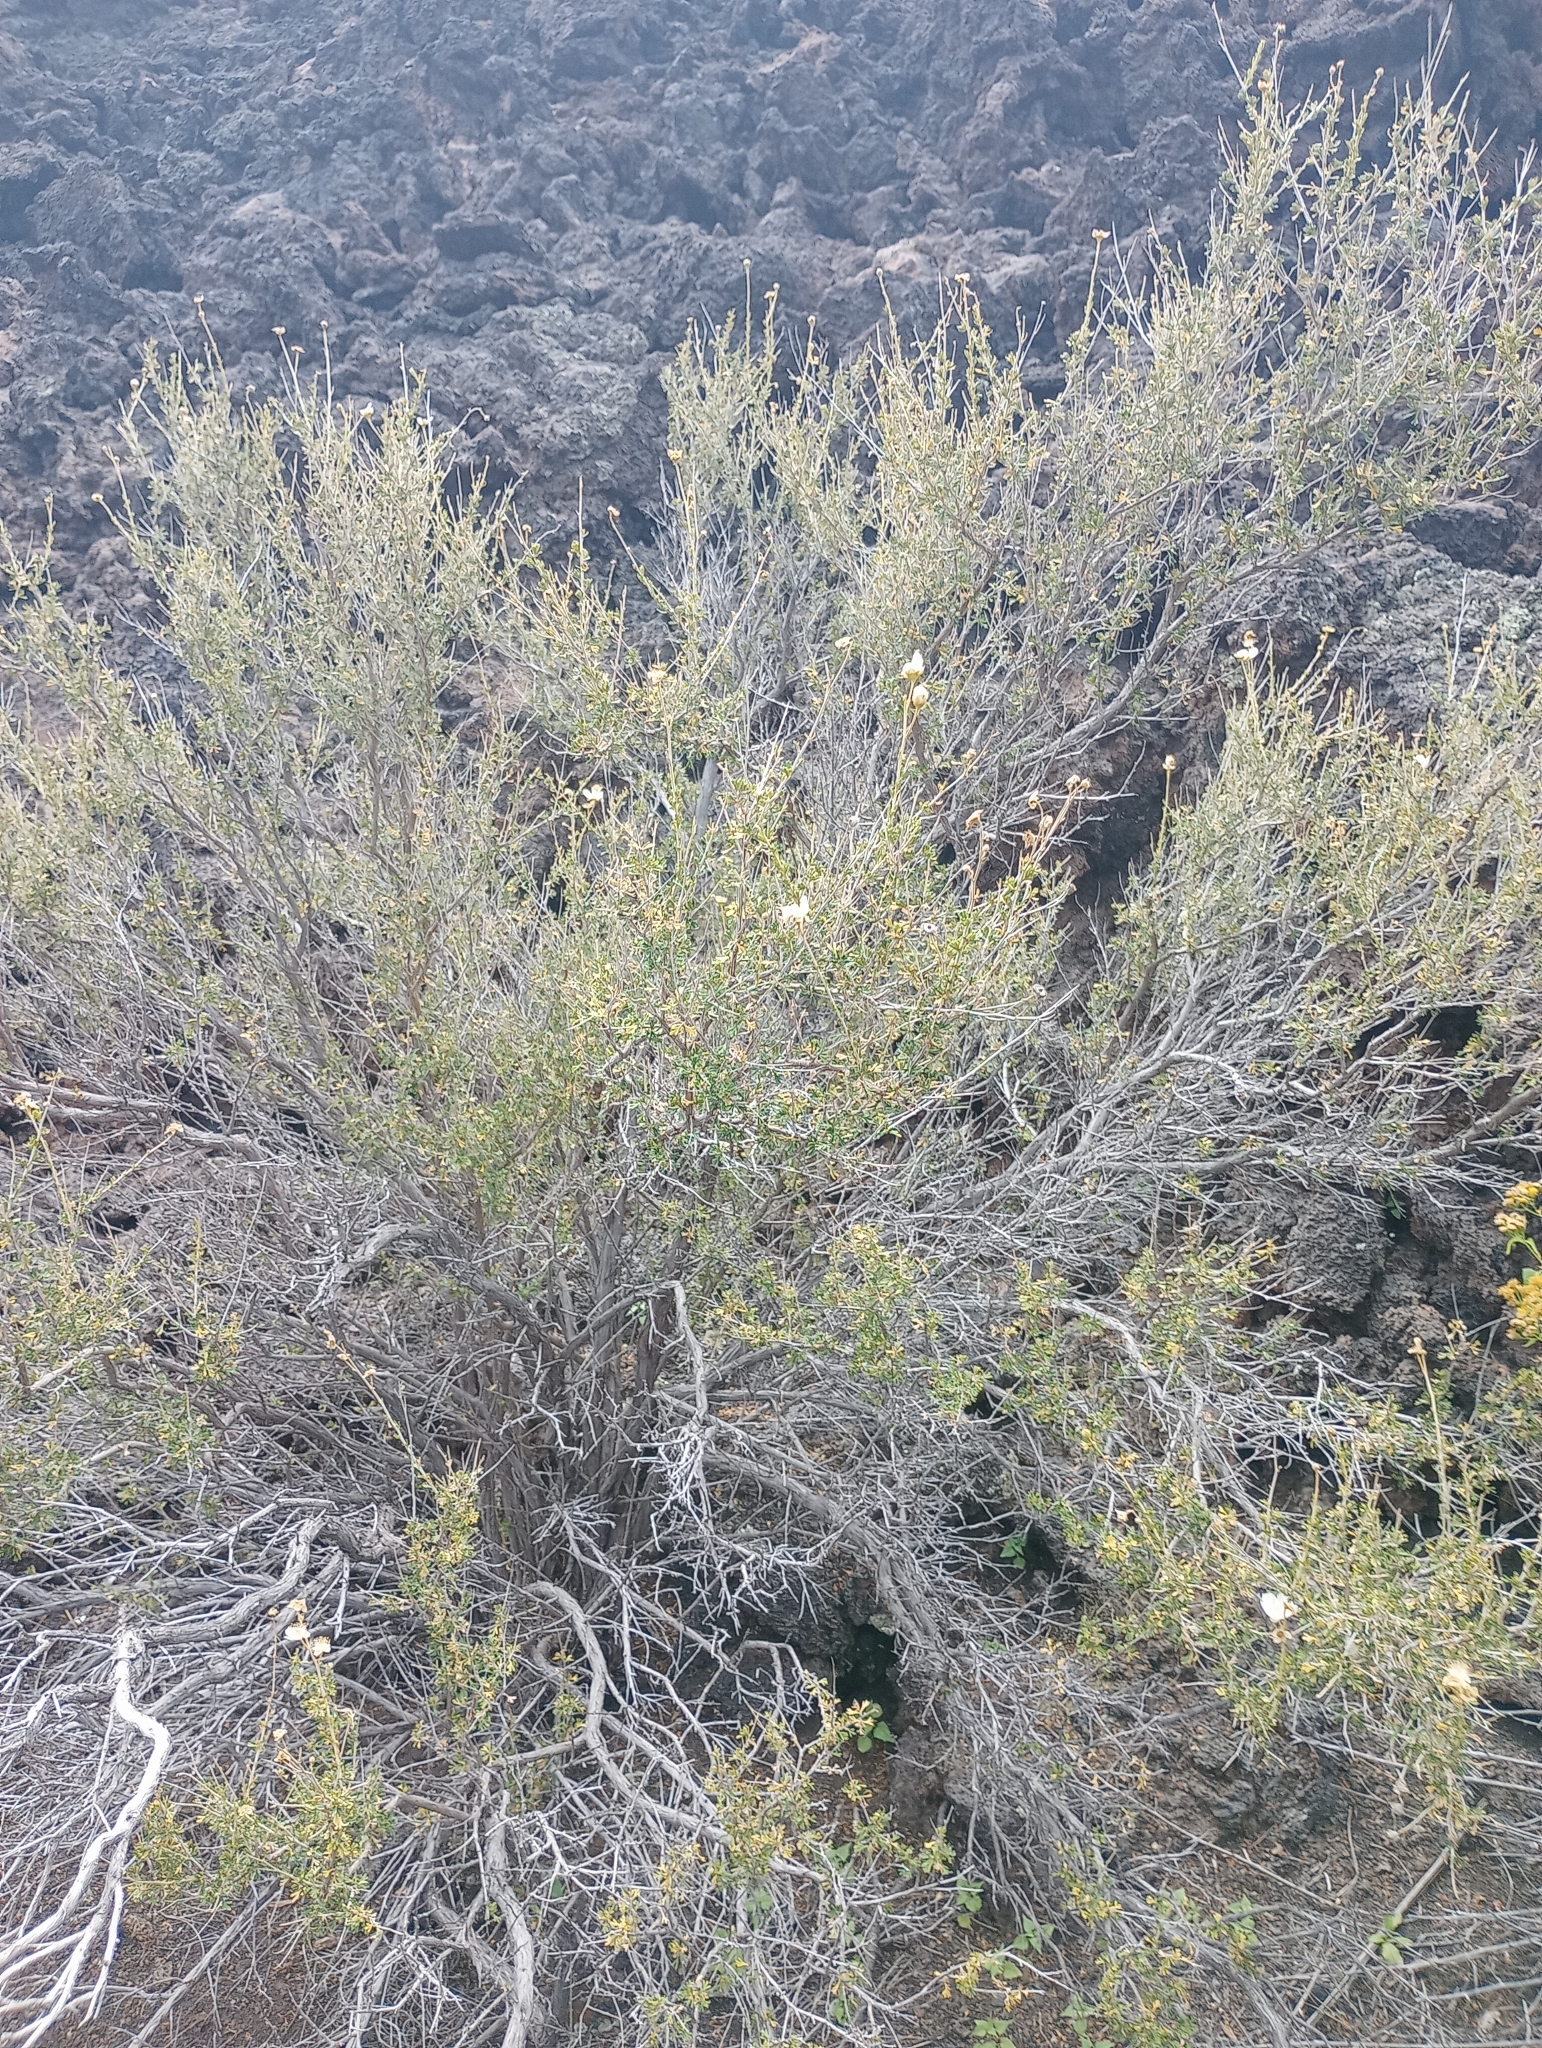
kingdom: Plantae
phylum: Tracheophyta
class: Magnoliopsida
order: Rosales
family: Rosaceae
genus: Fallugia
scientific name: Fallugia paradoxa
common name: Apache-plume
